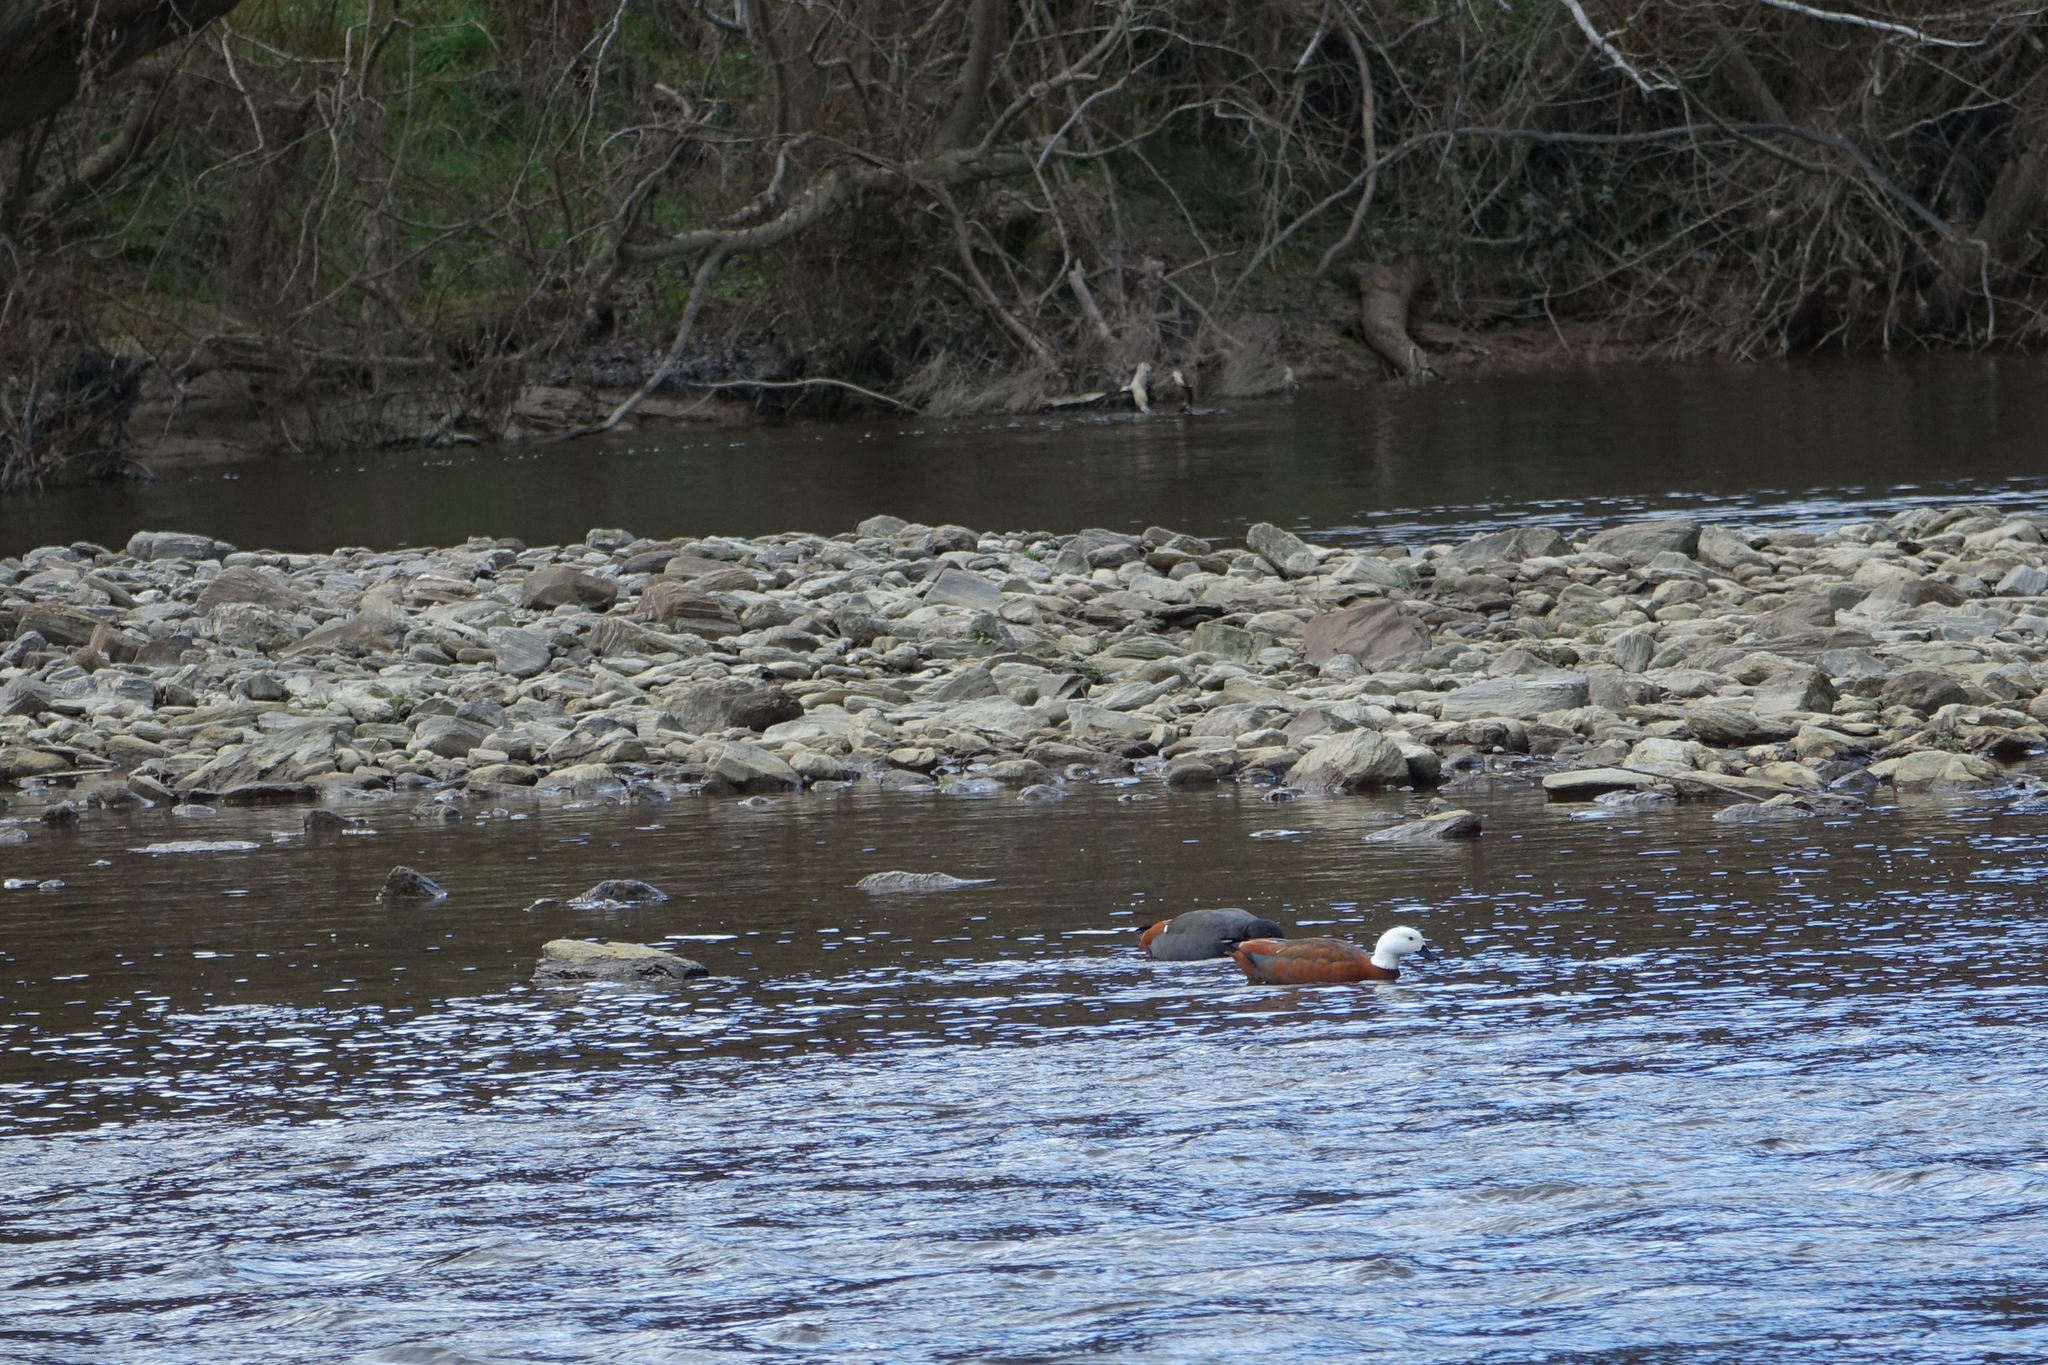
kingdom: Animalia
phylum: Chordata
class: Aves
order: Anseriformes
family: Anatidae
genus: Tadorna
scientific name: Tadorna variegata
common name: Paradise shelduck
